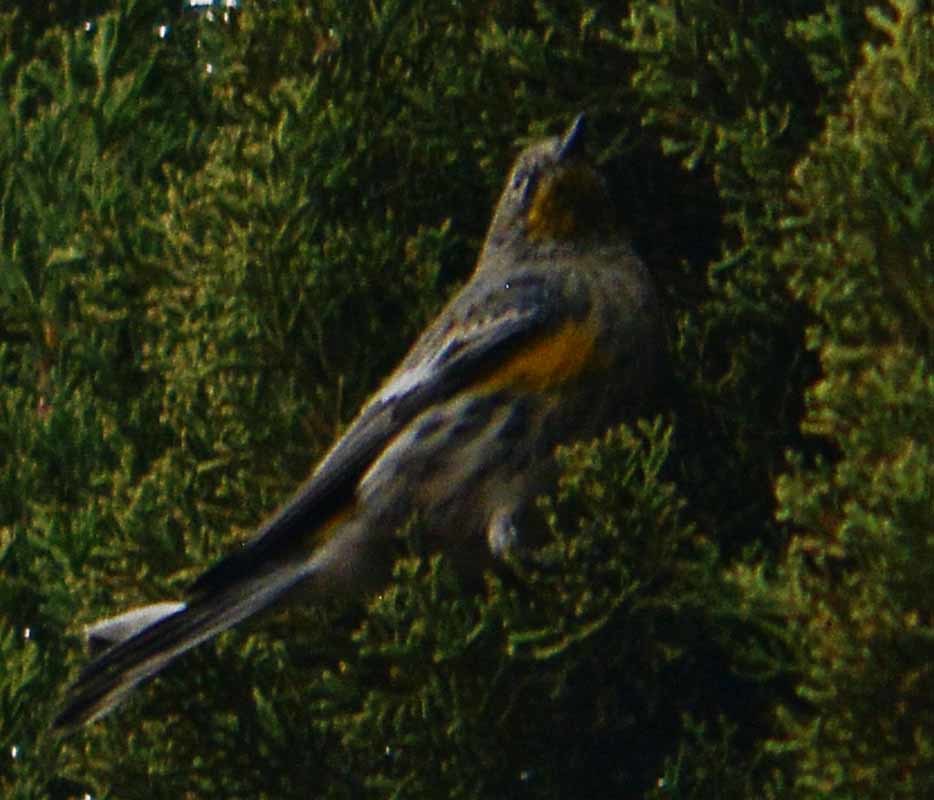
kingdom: Animalia
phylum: Chordata
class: Aves
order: Passeriformes
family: Parulidae
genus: Setophaga
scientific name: Setophaga coronata
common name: Myrtle warbler
